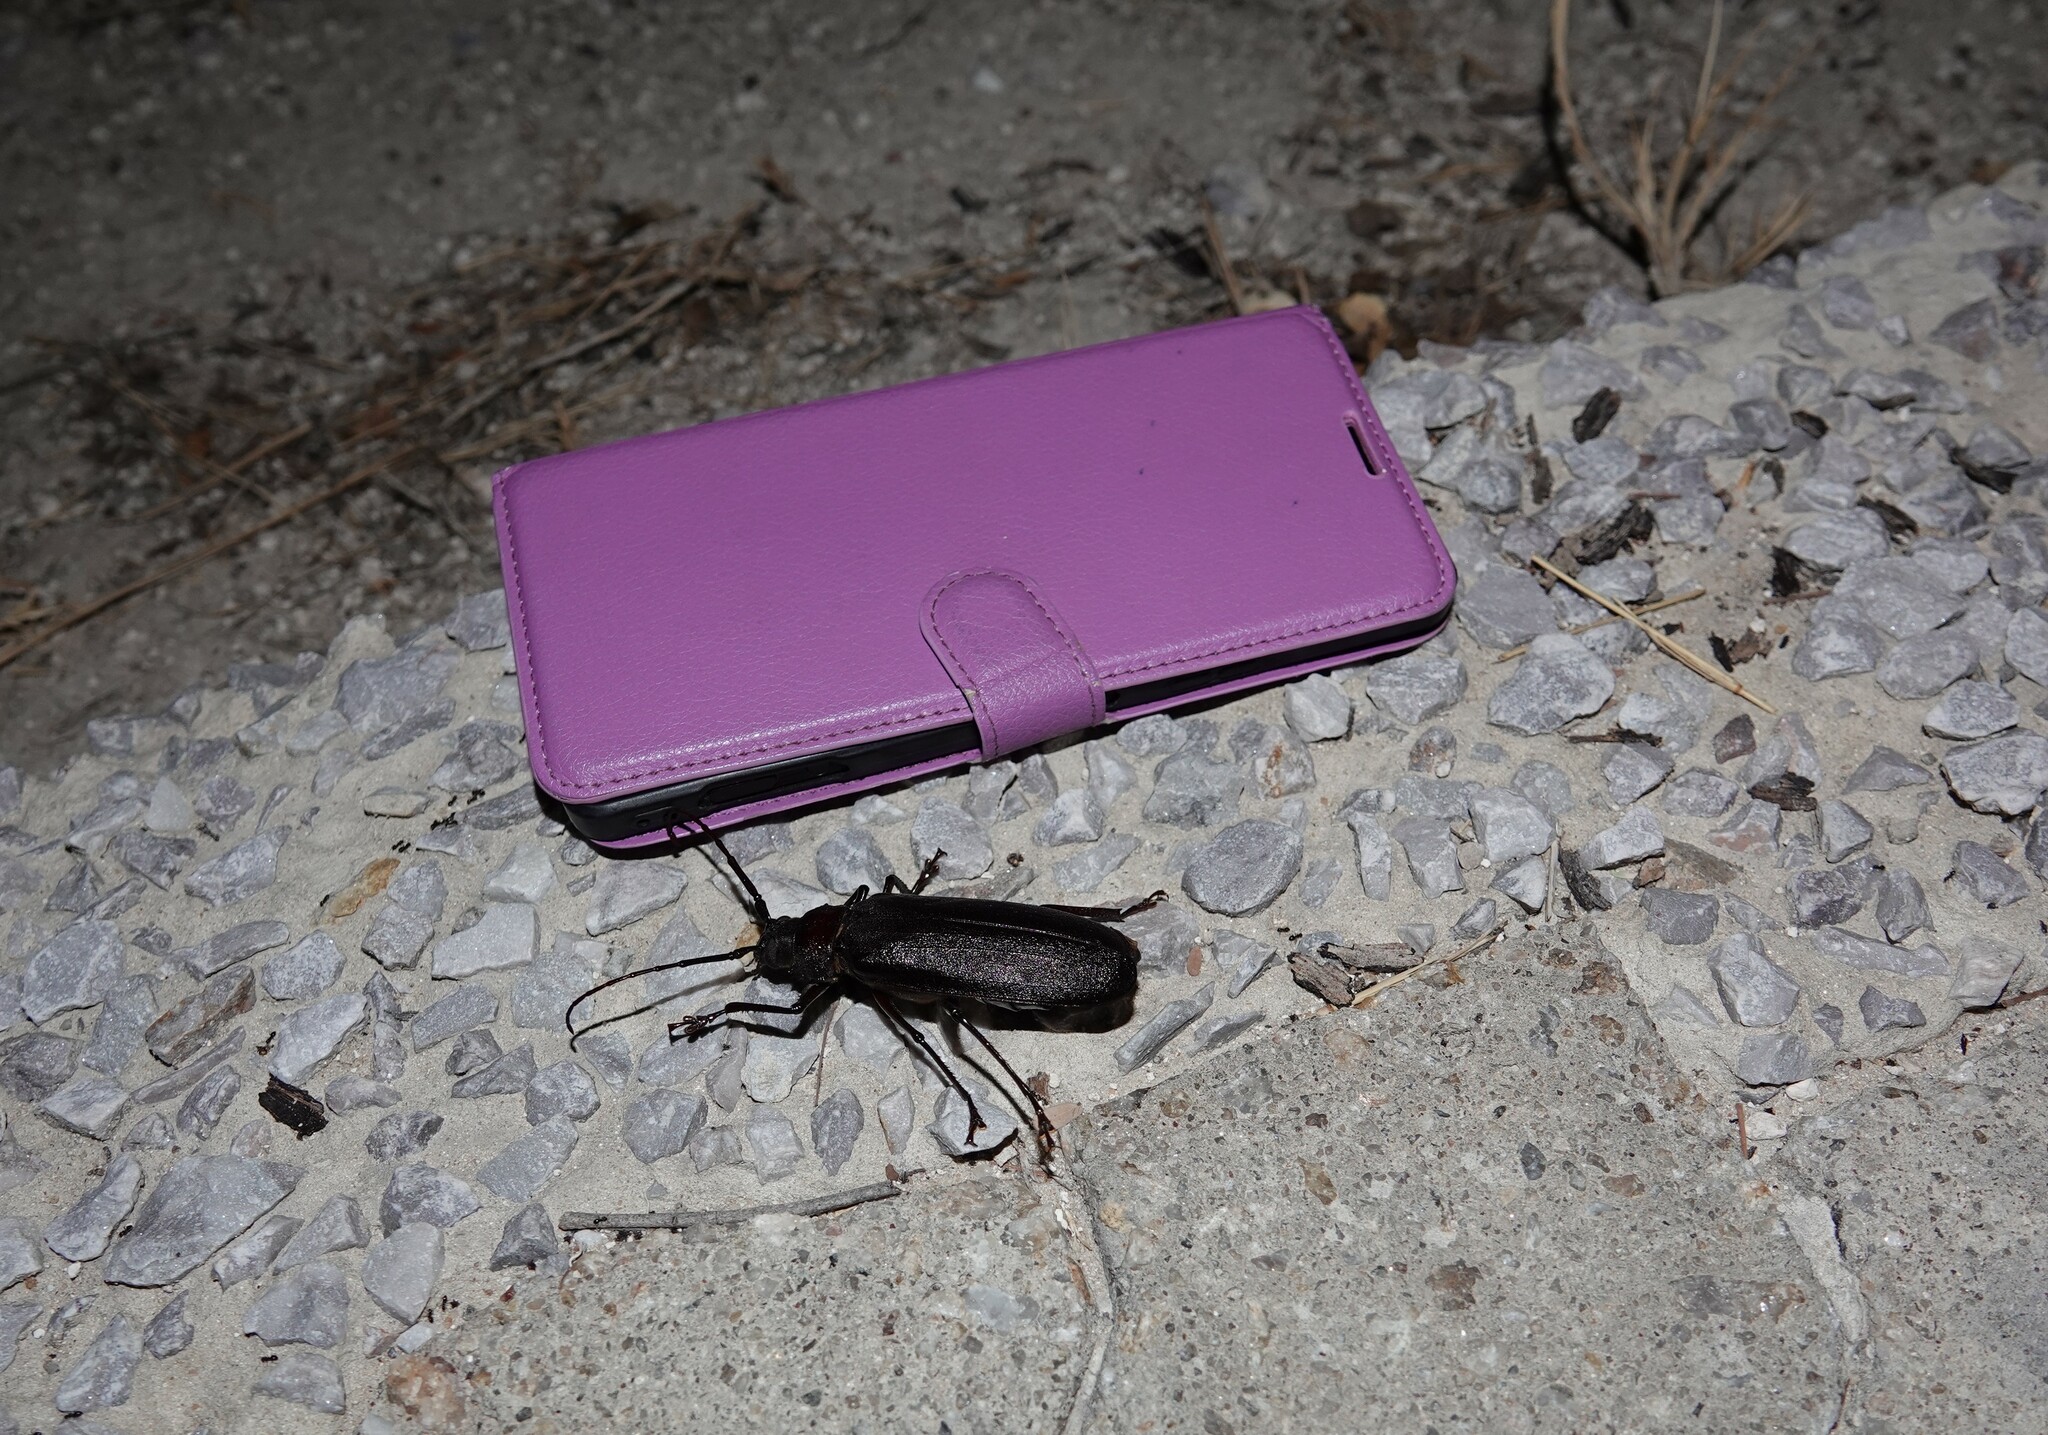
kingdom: Animalia
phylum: Arthropoda
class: Insecta
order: Coleoptera
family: Cerambycidae
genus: Macrotoma
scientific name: Macrotoma palmata
